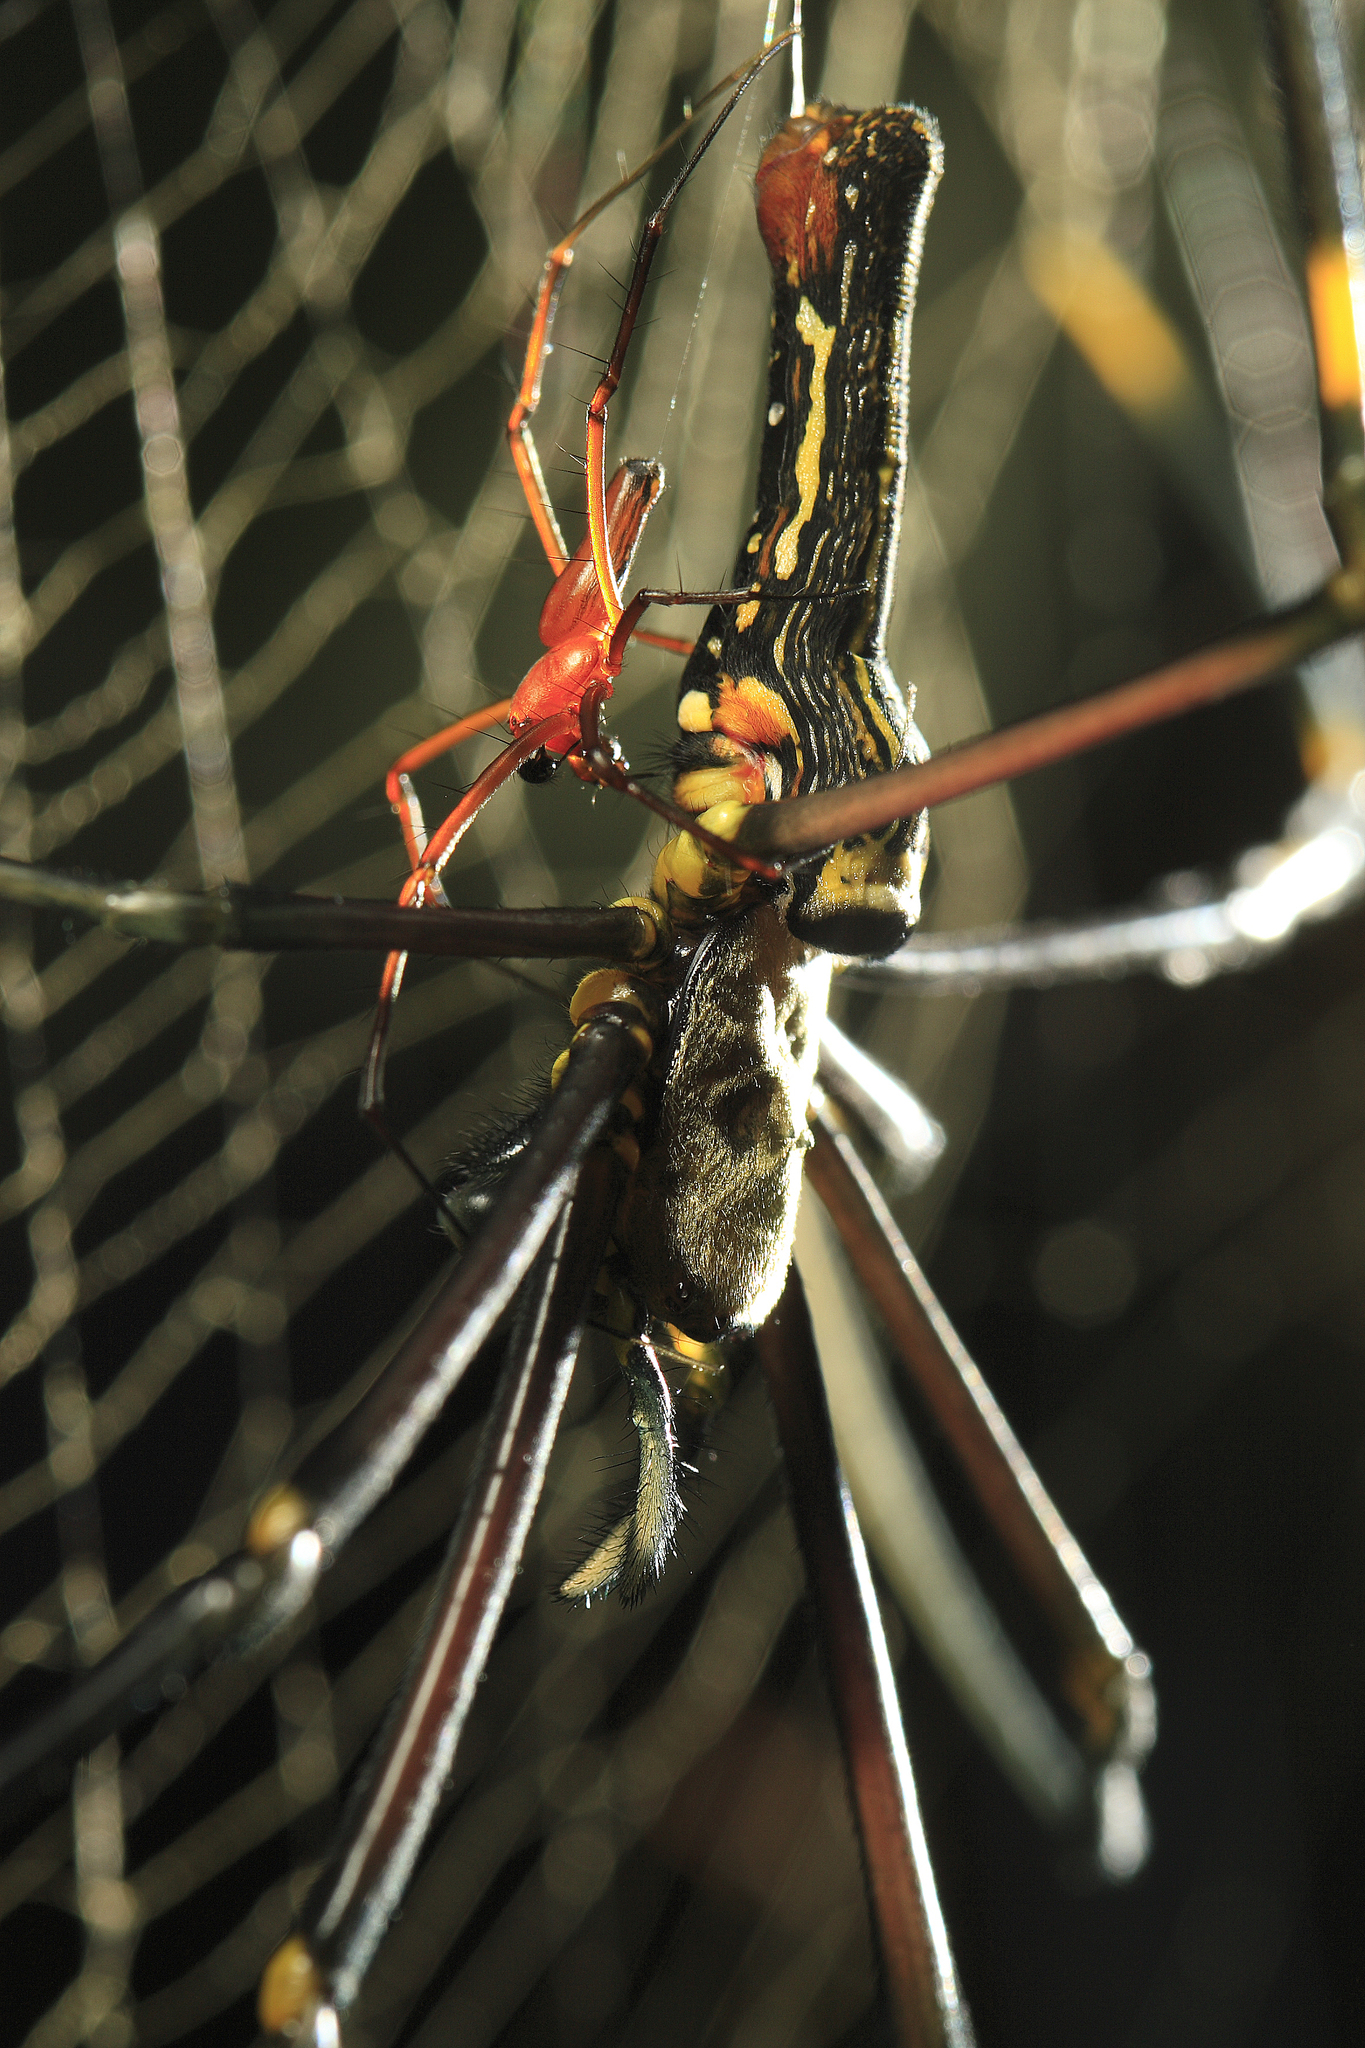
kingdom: Animalia
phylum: Arthropoda
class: Arachnida
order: Araneae
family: Araneidae
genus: Nephila
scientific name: Nephila pilipes
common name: Giant golden orb weaver
